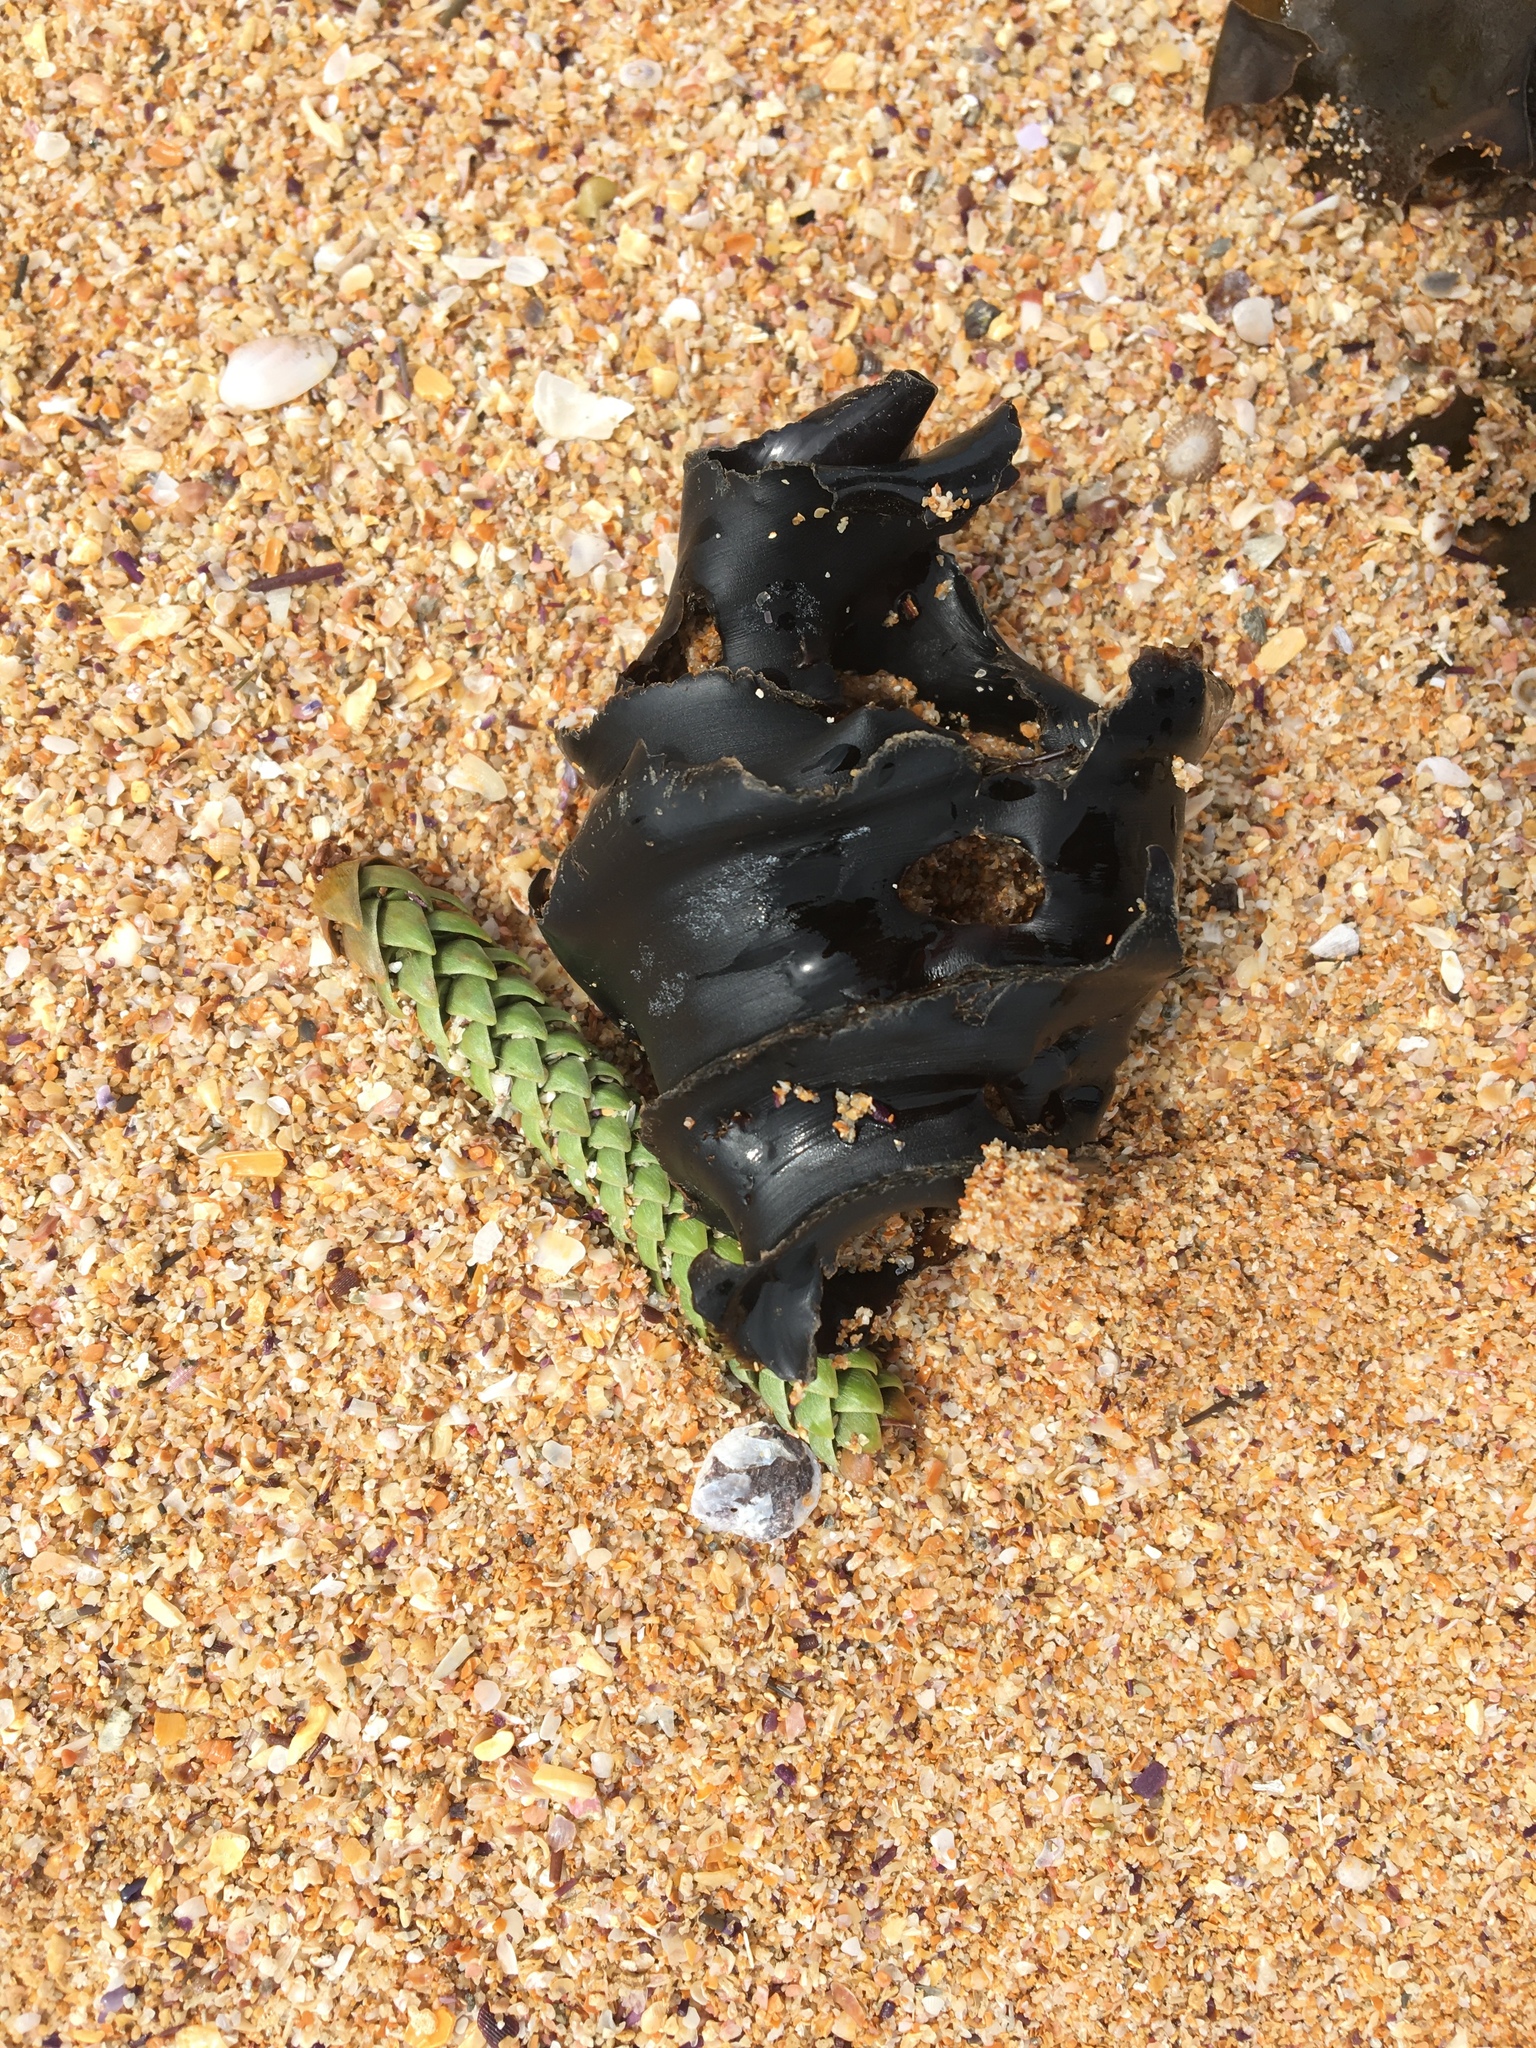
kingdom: Animalia
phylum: Chordata
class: Elasmobranchii
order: Heterodontiformes
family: Heterodontidae
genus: Heterodontus
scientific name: Heterodontus galeatus
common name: Crested bullhead shark
